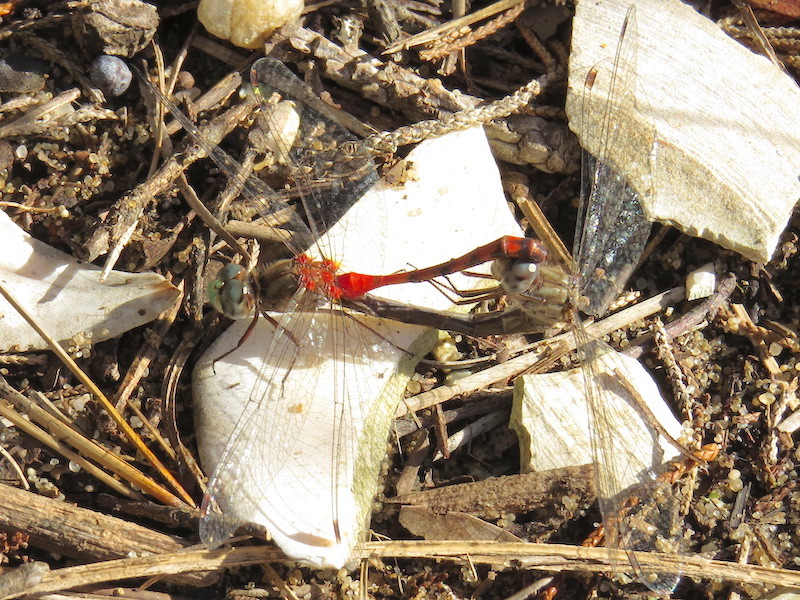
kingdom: Animalia
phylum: Arthropoda
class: Insecta
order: Odonata
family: Libellulidae
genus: Sympetrum
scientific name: Sympetrum ambiguum
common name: Blue-faced meadowhawk
